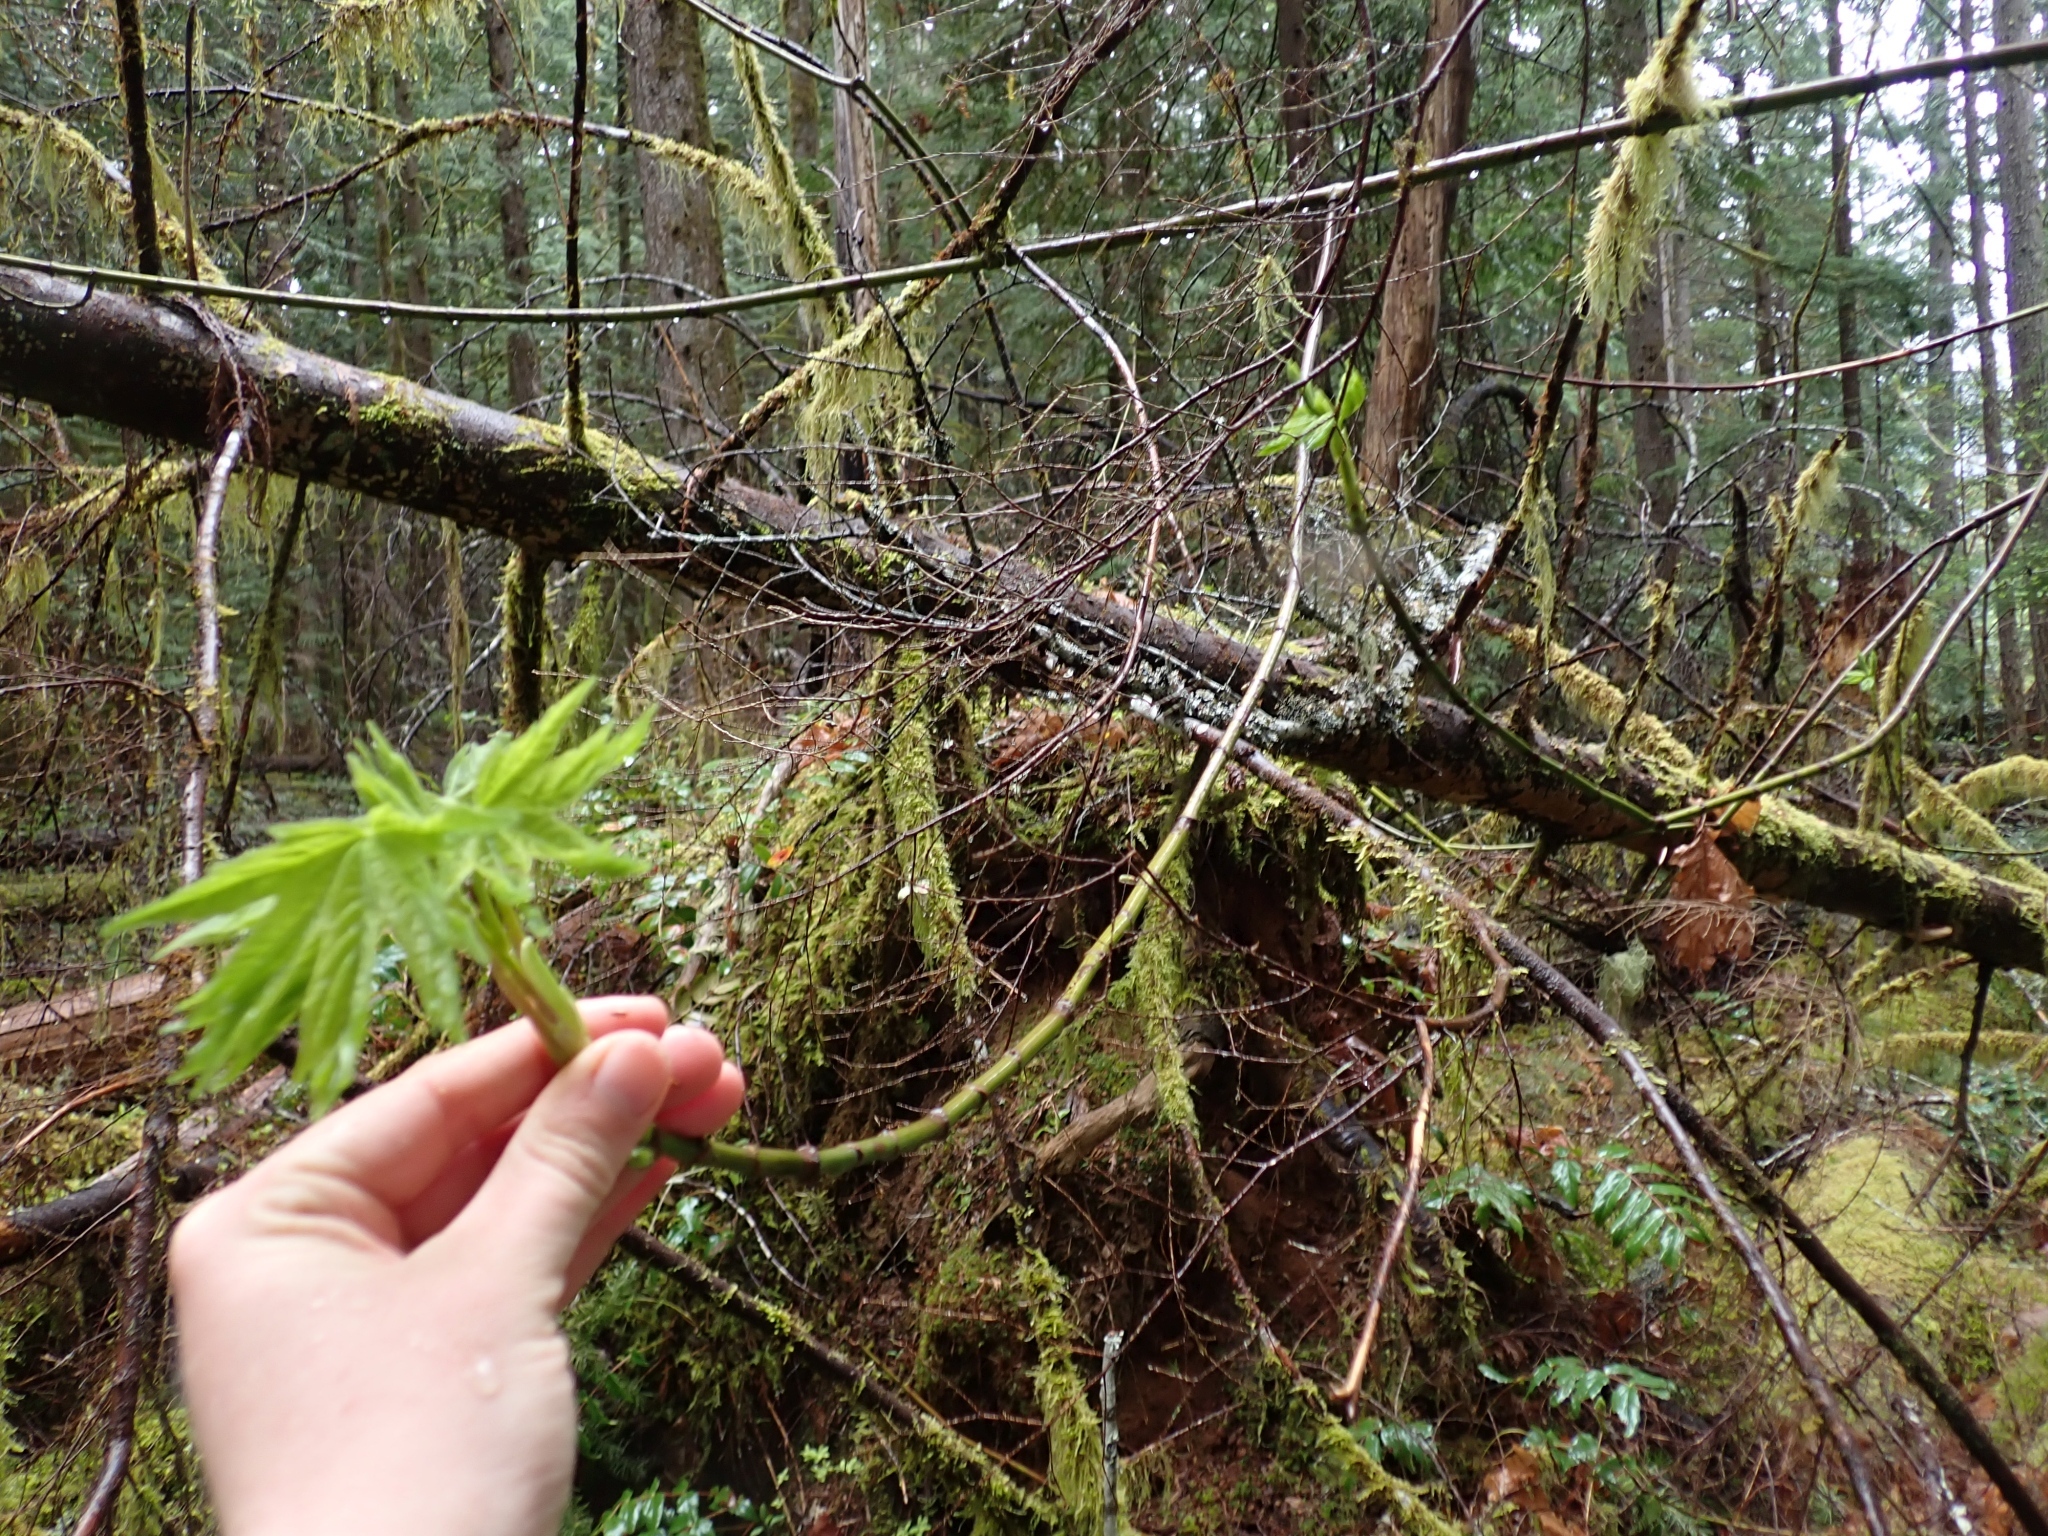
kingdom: Plantae
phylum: Tracheophyta
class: Magnoliopsida
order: Sapindales
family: Sapindaceae
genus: Acer
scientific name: Acer macrophyllum
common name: Oregon maple
